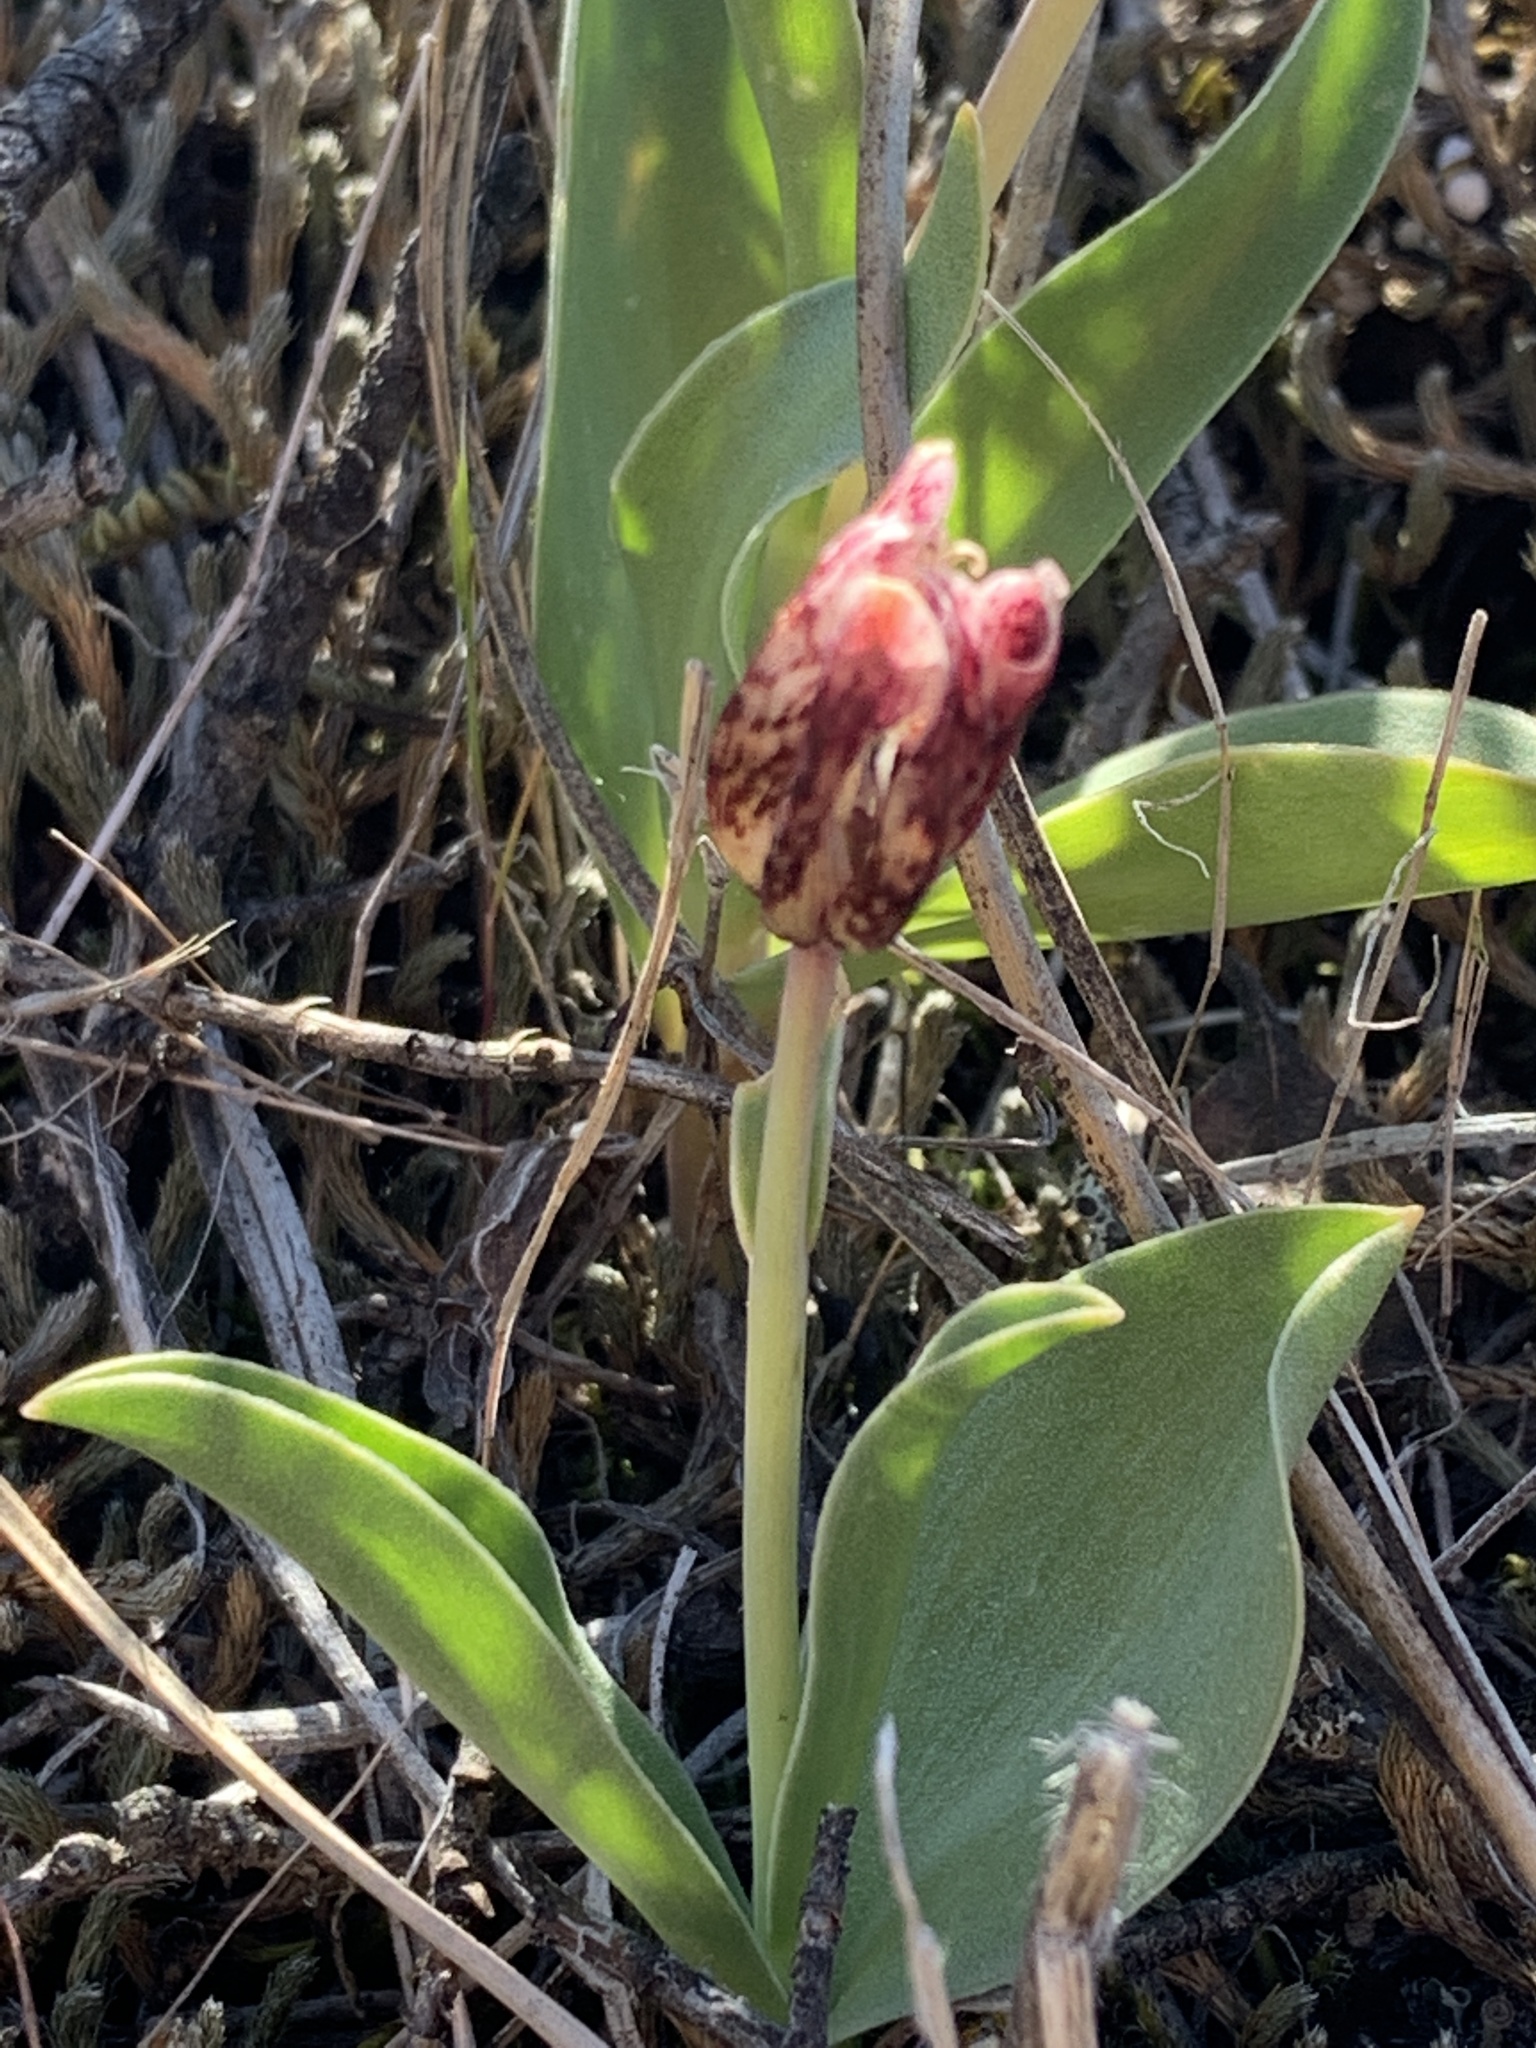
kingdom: Plantae
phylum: Tracheophyta
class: Liliopsida
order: Liliales
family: Liliaceae
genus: Fritillaria
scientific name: Fritillaria purdyi
